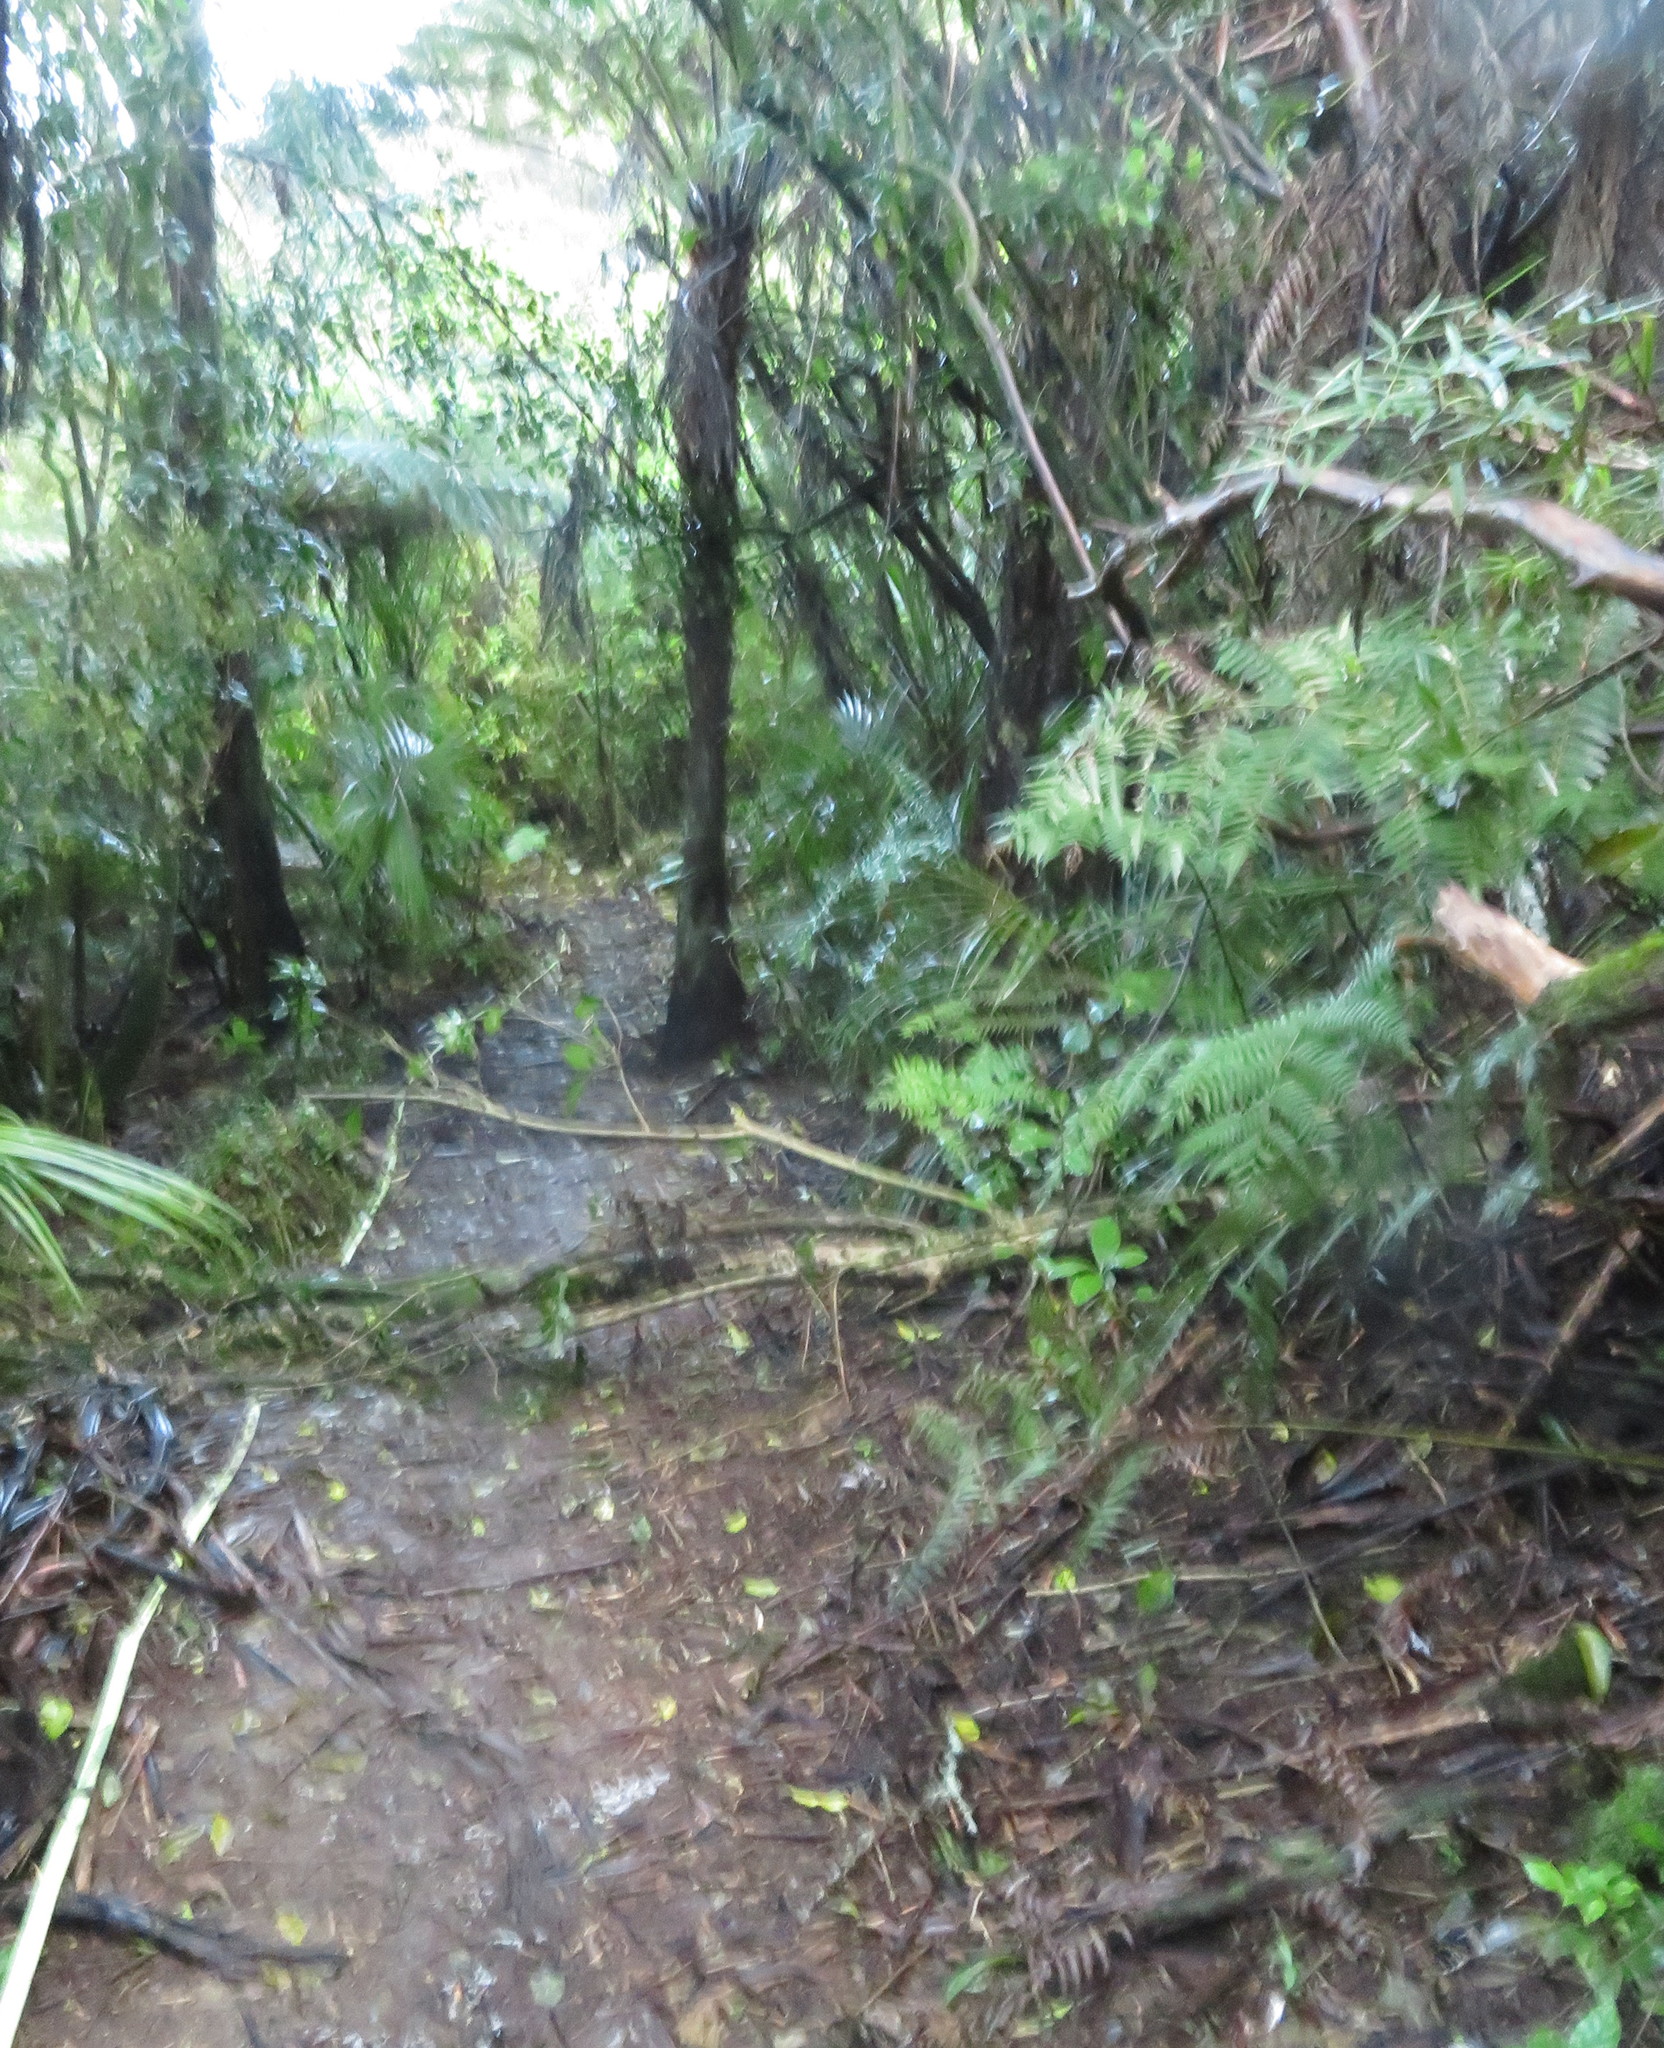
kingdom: Plantae
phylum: Tracheophyta
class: Magnoliopsida
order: Rosales
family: Rosaceae
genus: Rubus
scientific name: Rubus cissoides
